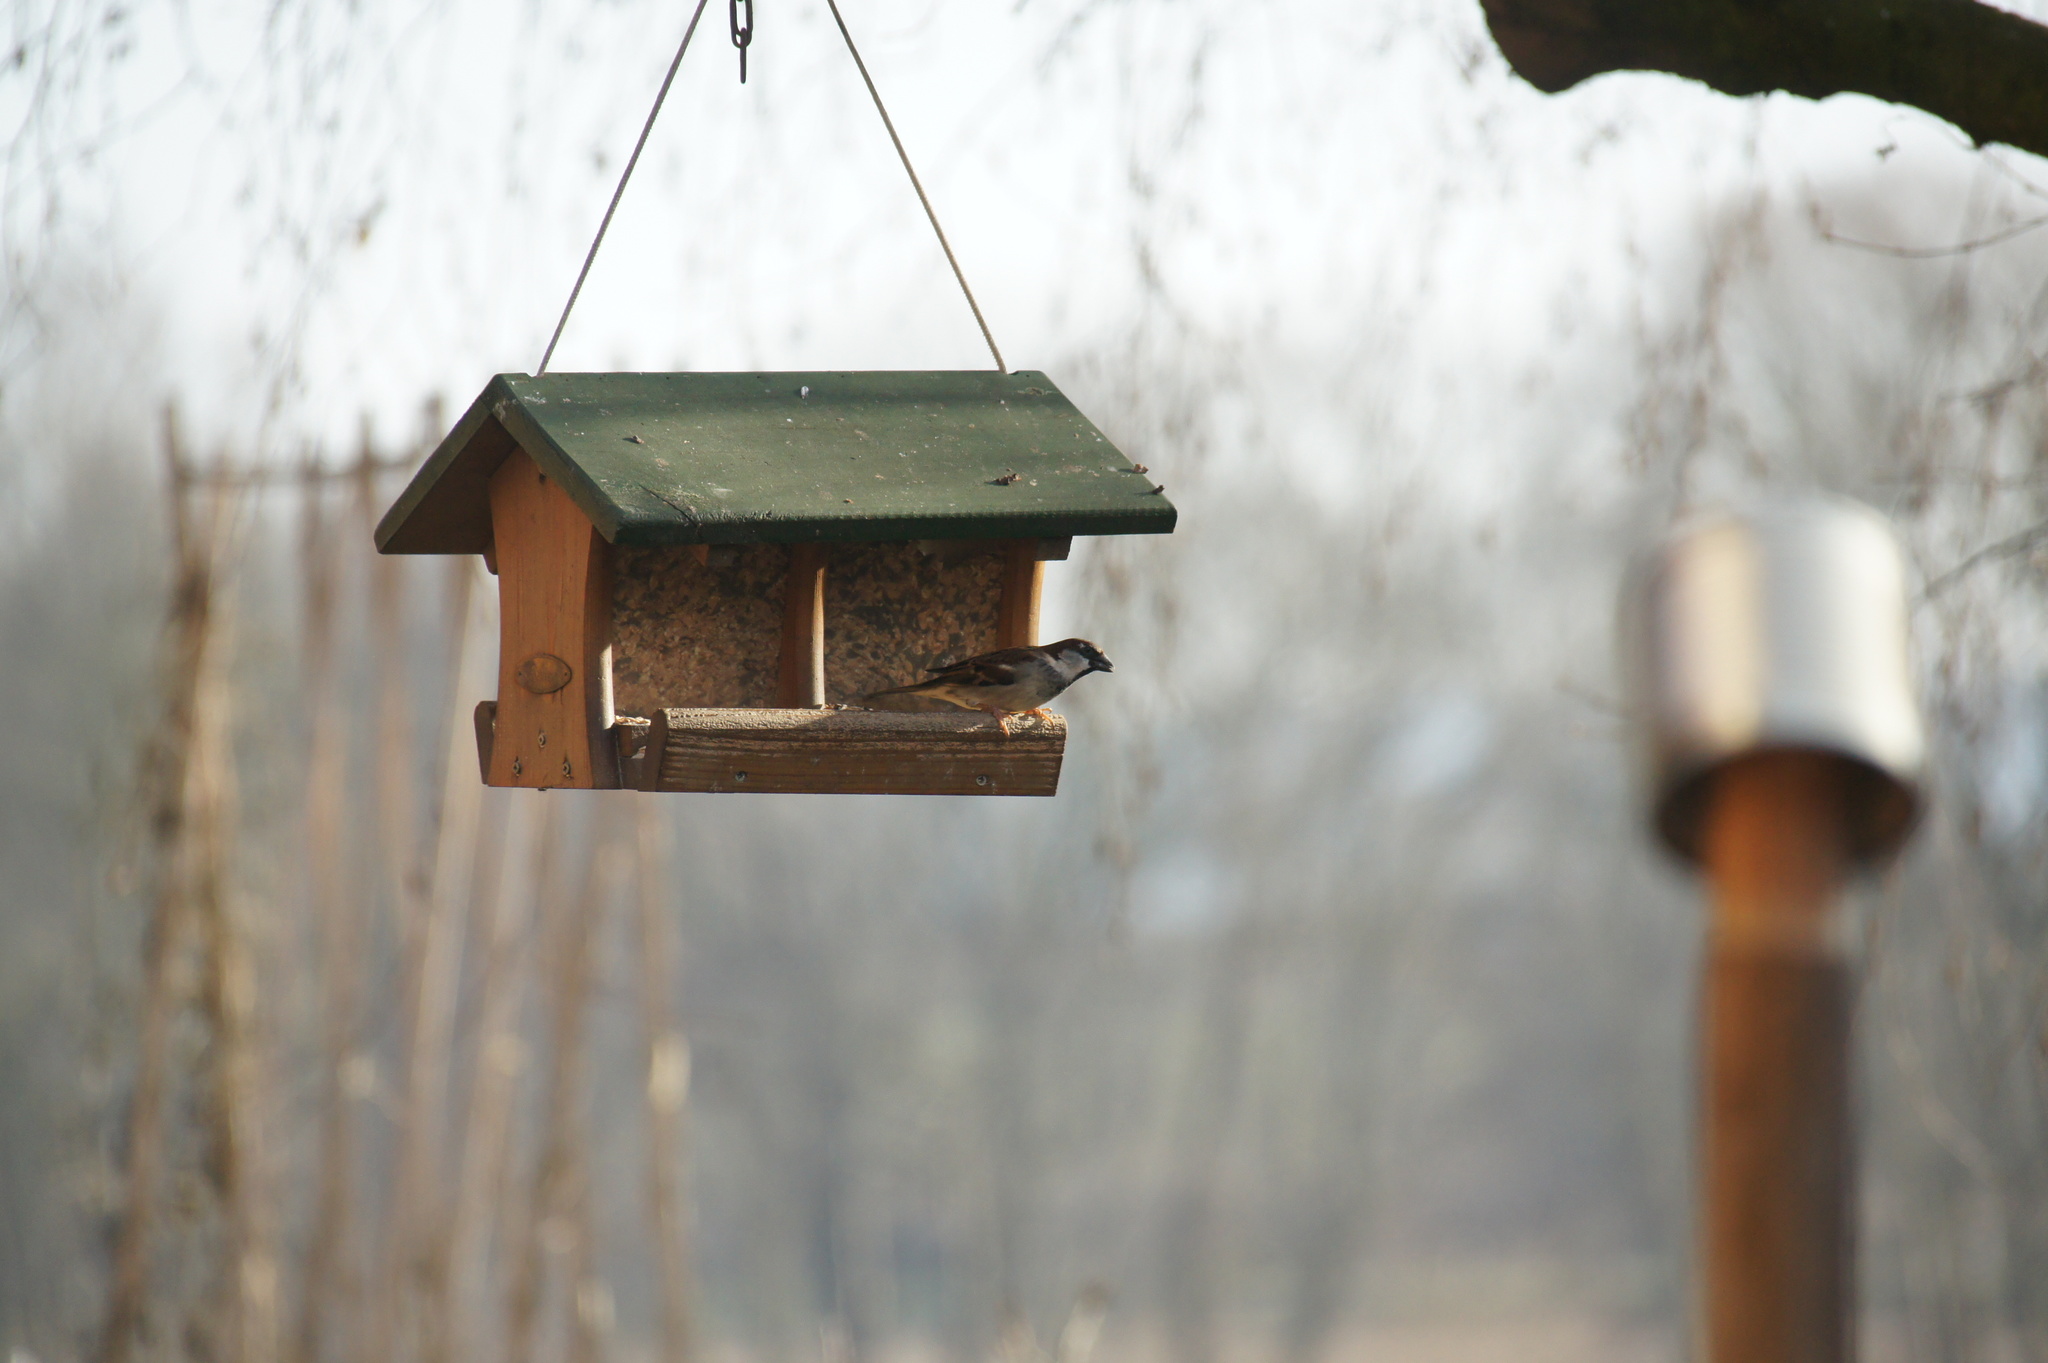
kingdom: Animalia
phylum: Chordata
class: Aves
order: Passeriformes
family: Passeridae
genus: Passer
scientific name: Passer domesticus
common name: House sparrow
